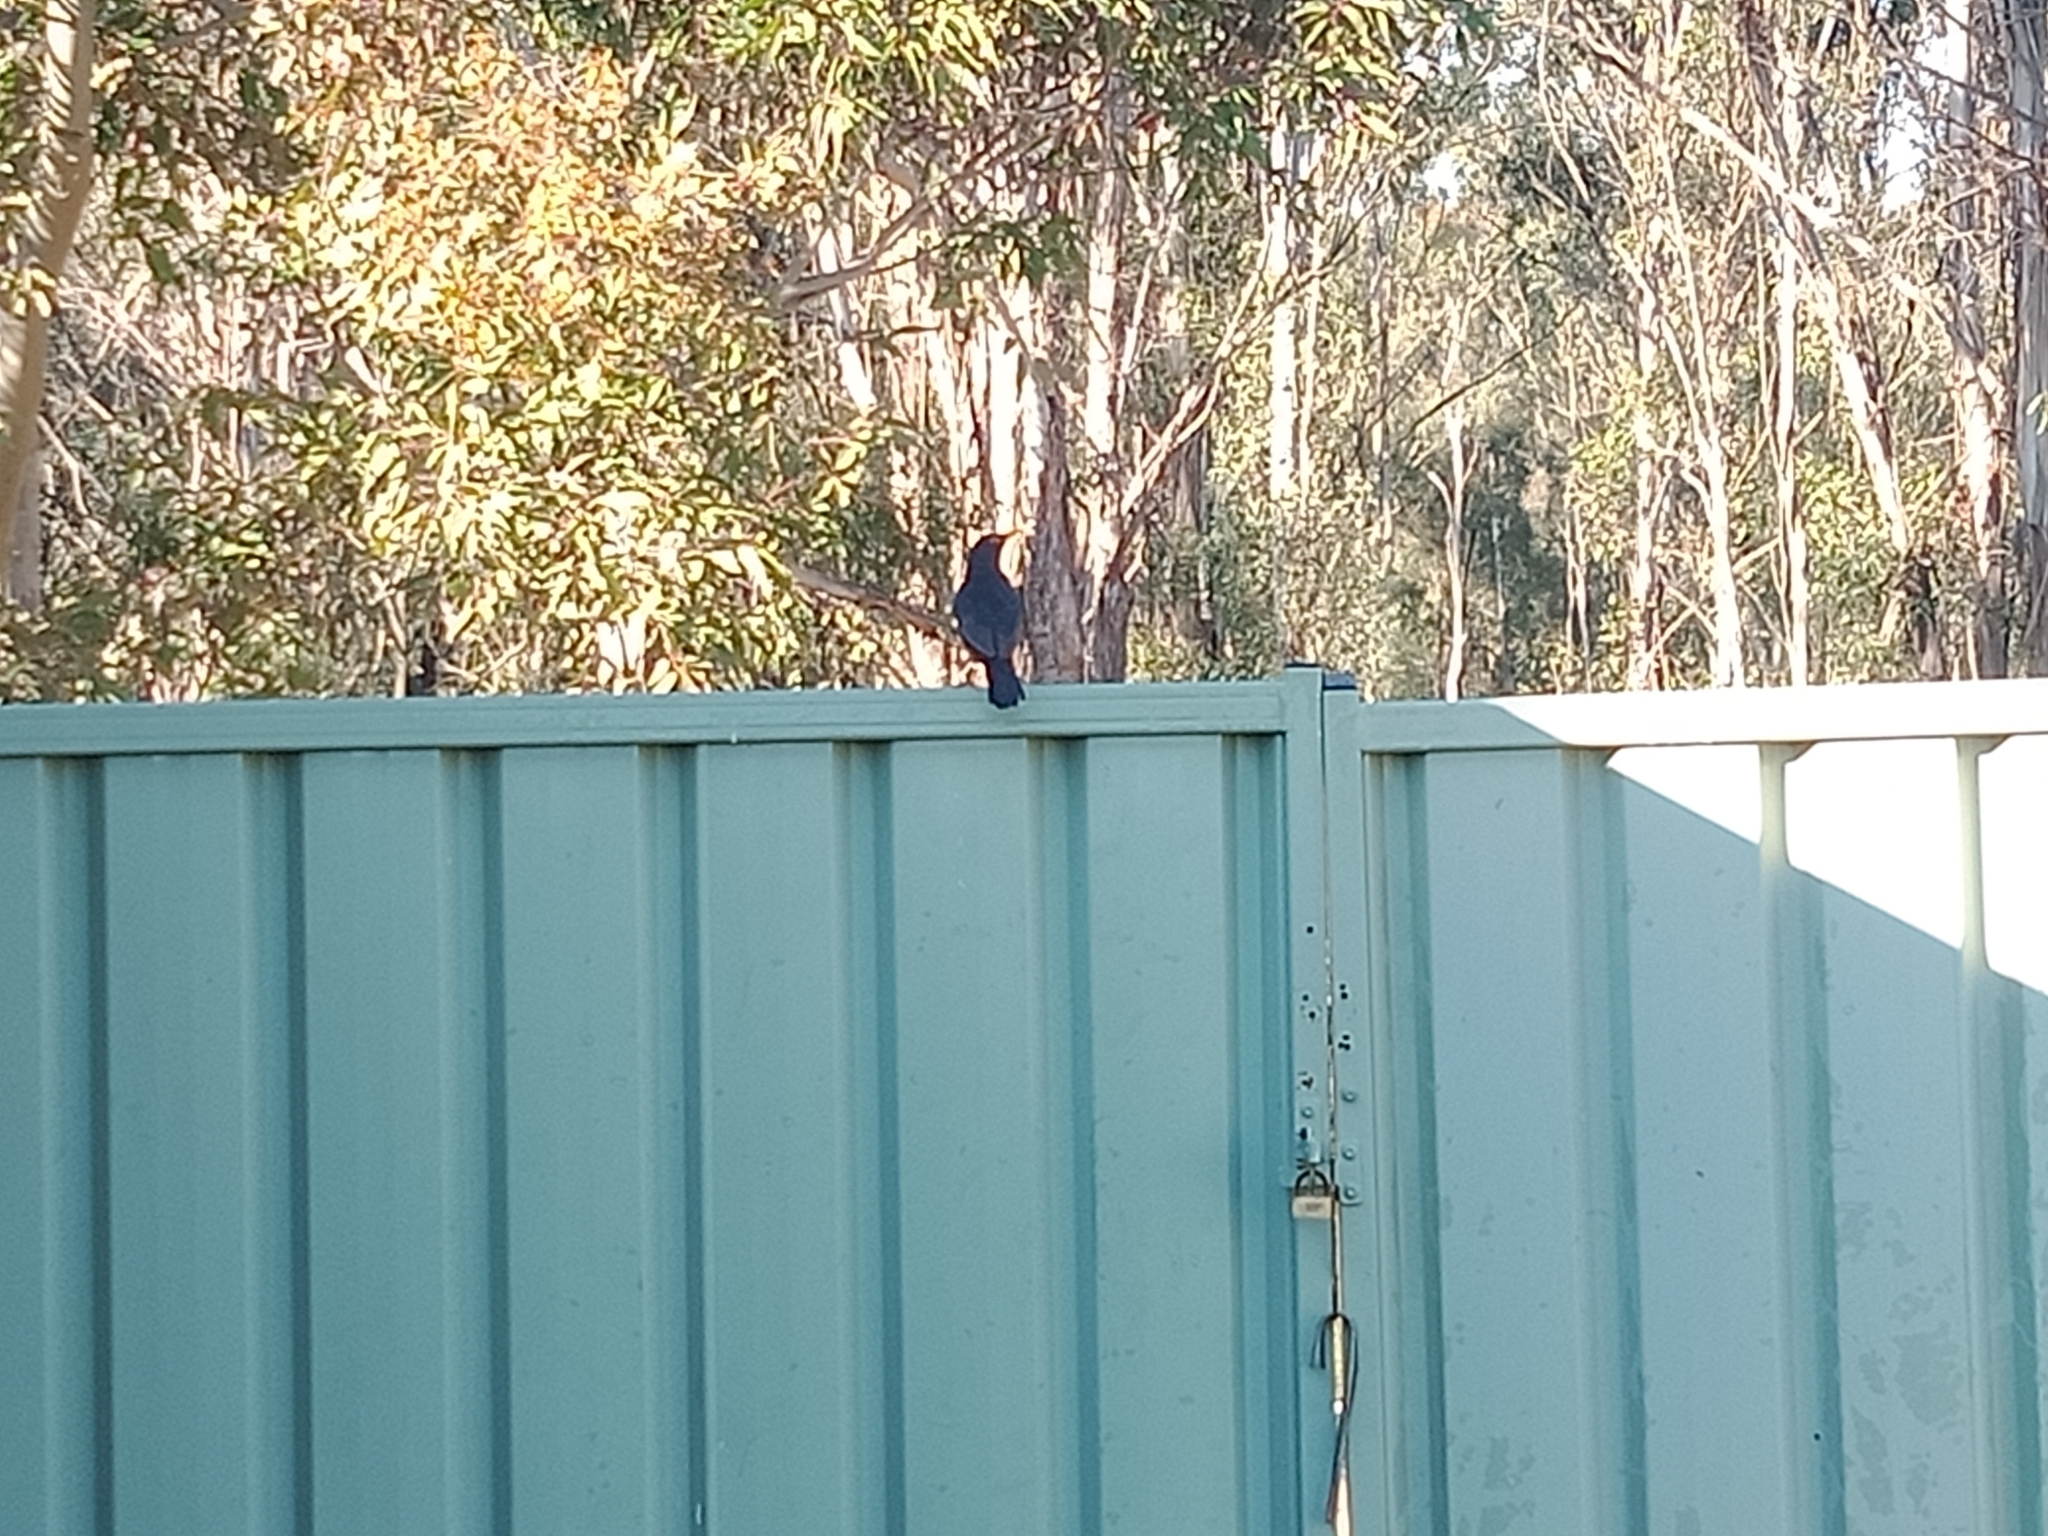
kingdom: Animalia
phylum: Chordata
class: Aves
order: Passeriformes
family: Turdidae
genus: Turdus
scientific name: Turdus merula
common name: Common blackbird
